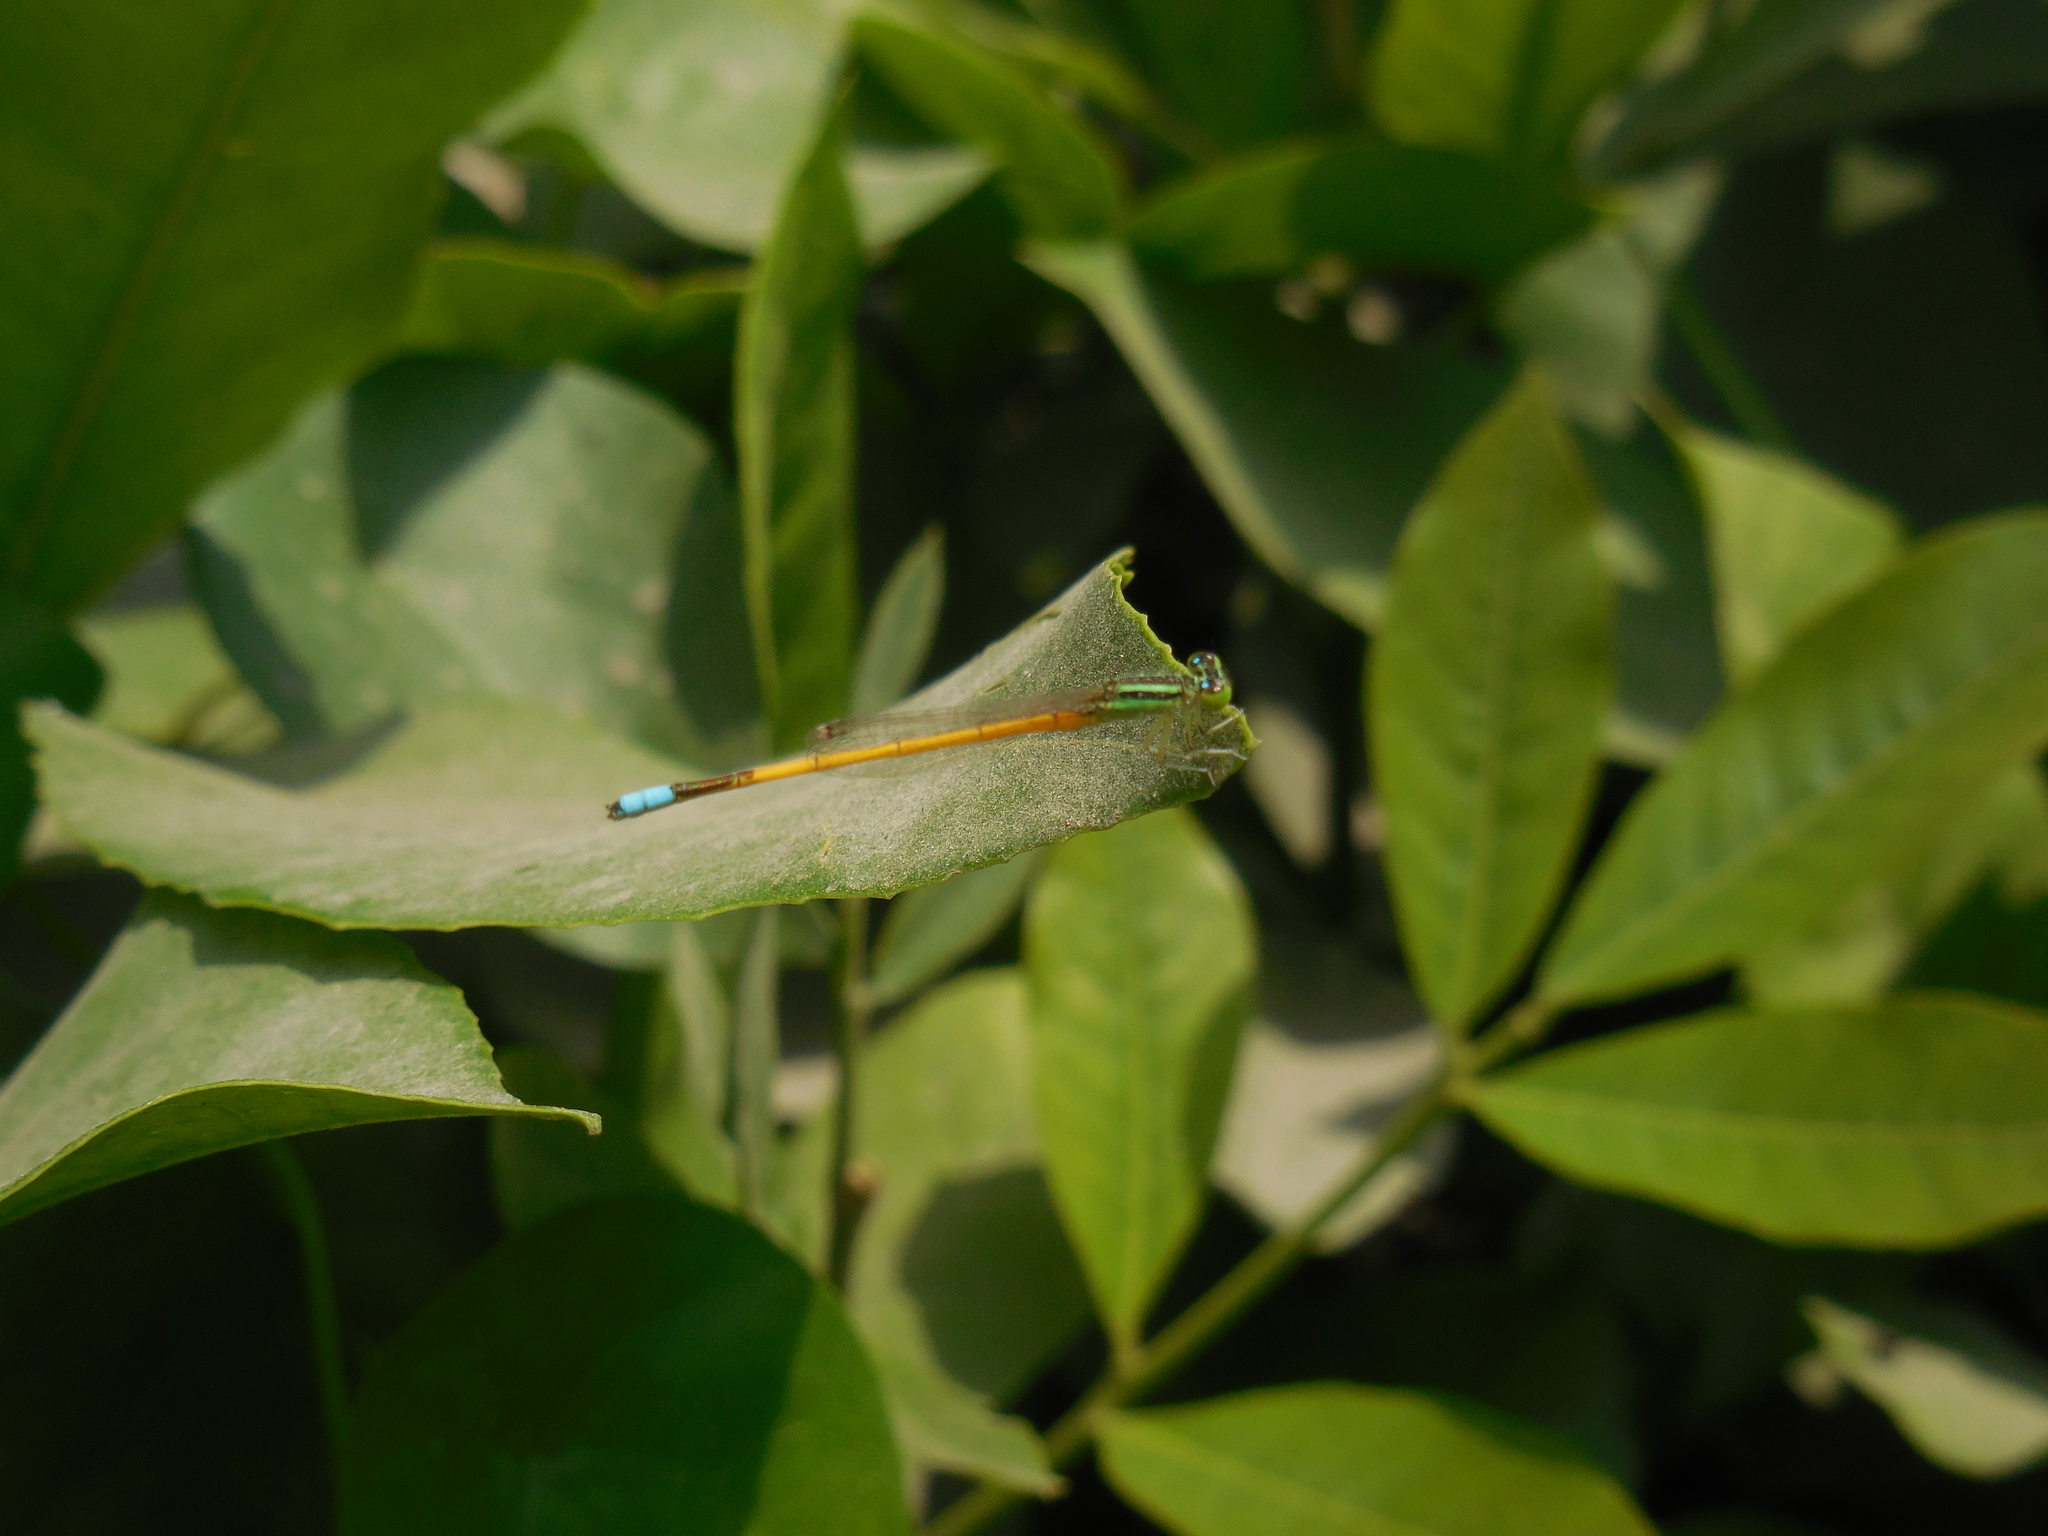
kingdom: Animalia
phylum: Arthropoda
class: Insecta
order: Odonata
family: Coenagrionidae
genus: Ischnura
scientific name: Ischnura rubilio
